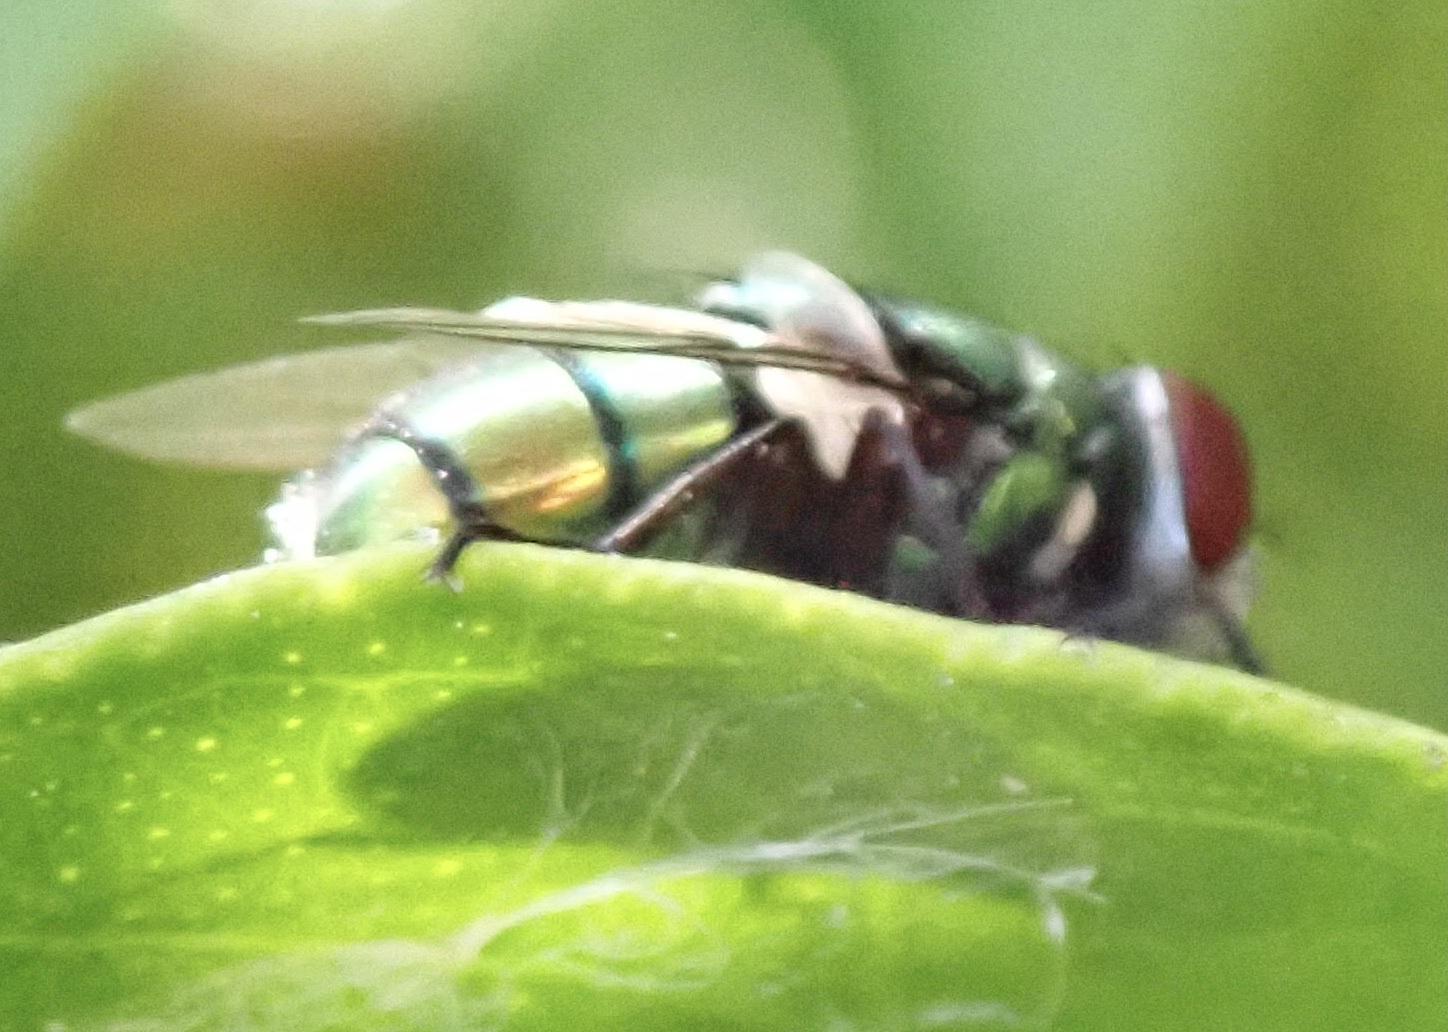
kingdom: Animalia
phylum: Arthropoda
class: Insecta
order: Diptera
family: Calliphoridae
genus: Chrysomya
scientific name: Chrysomya albiceps
